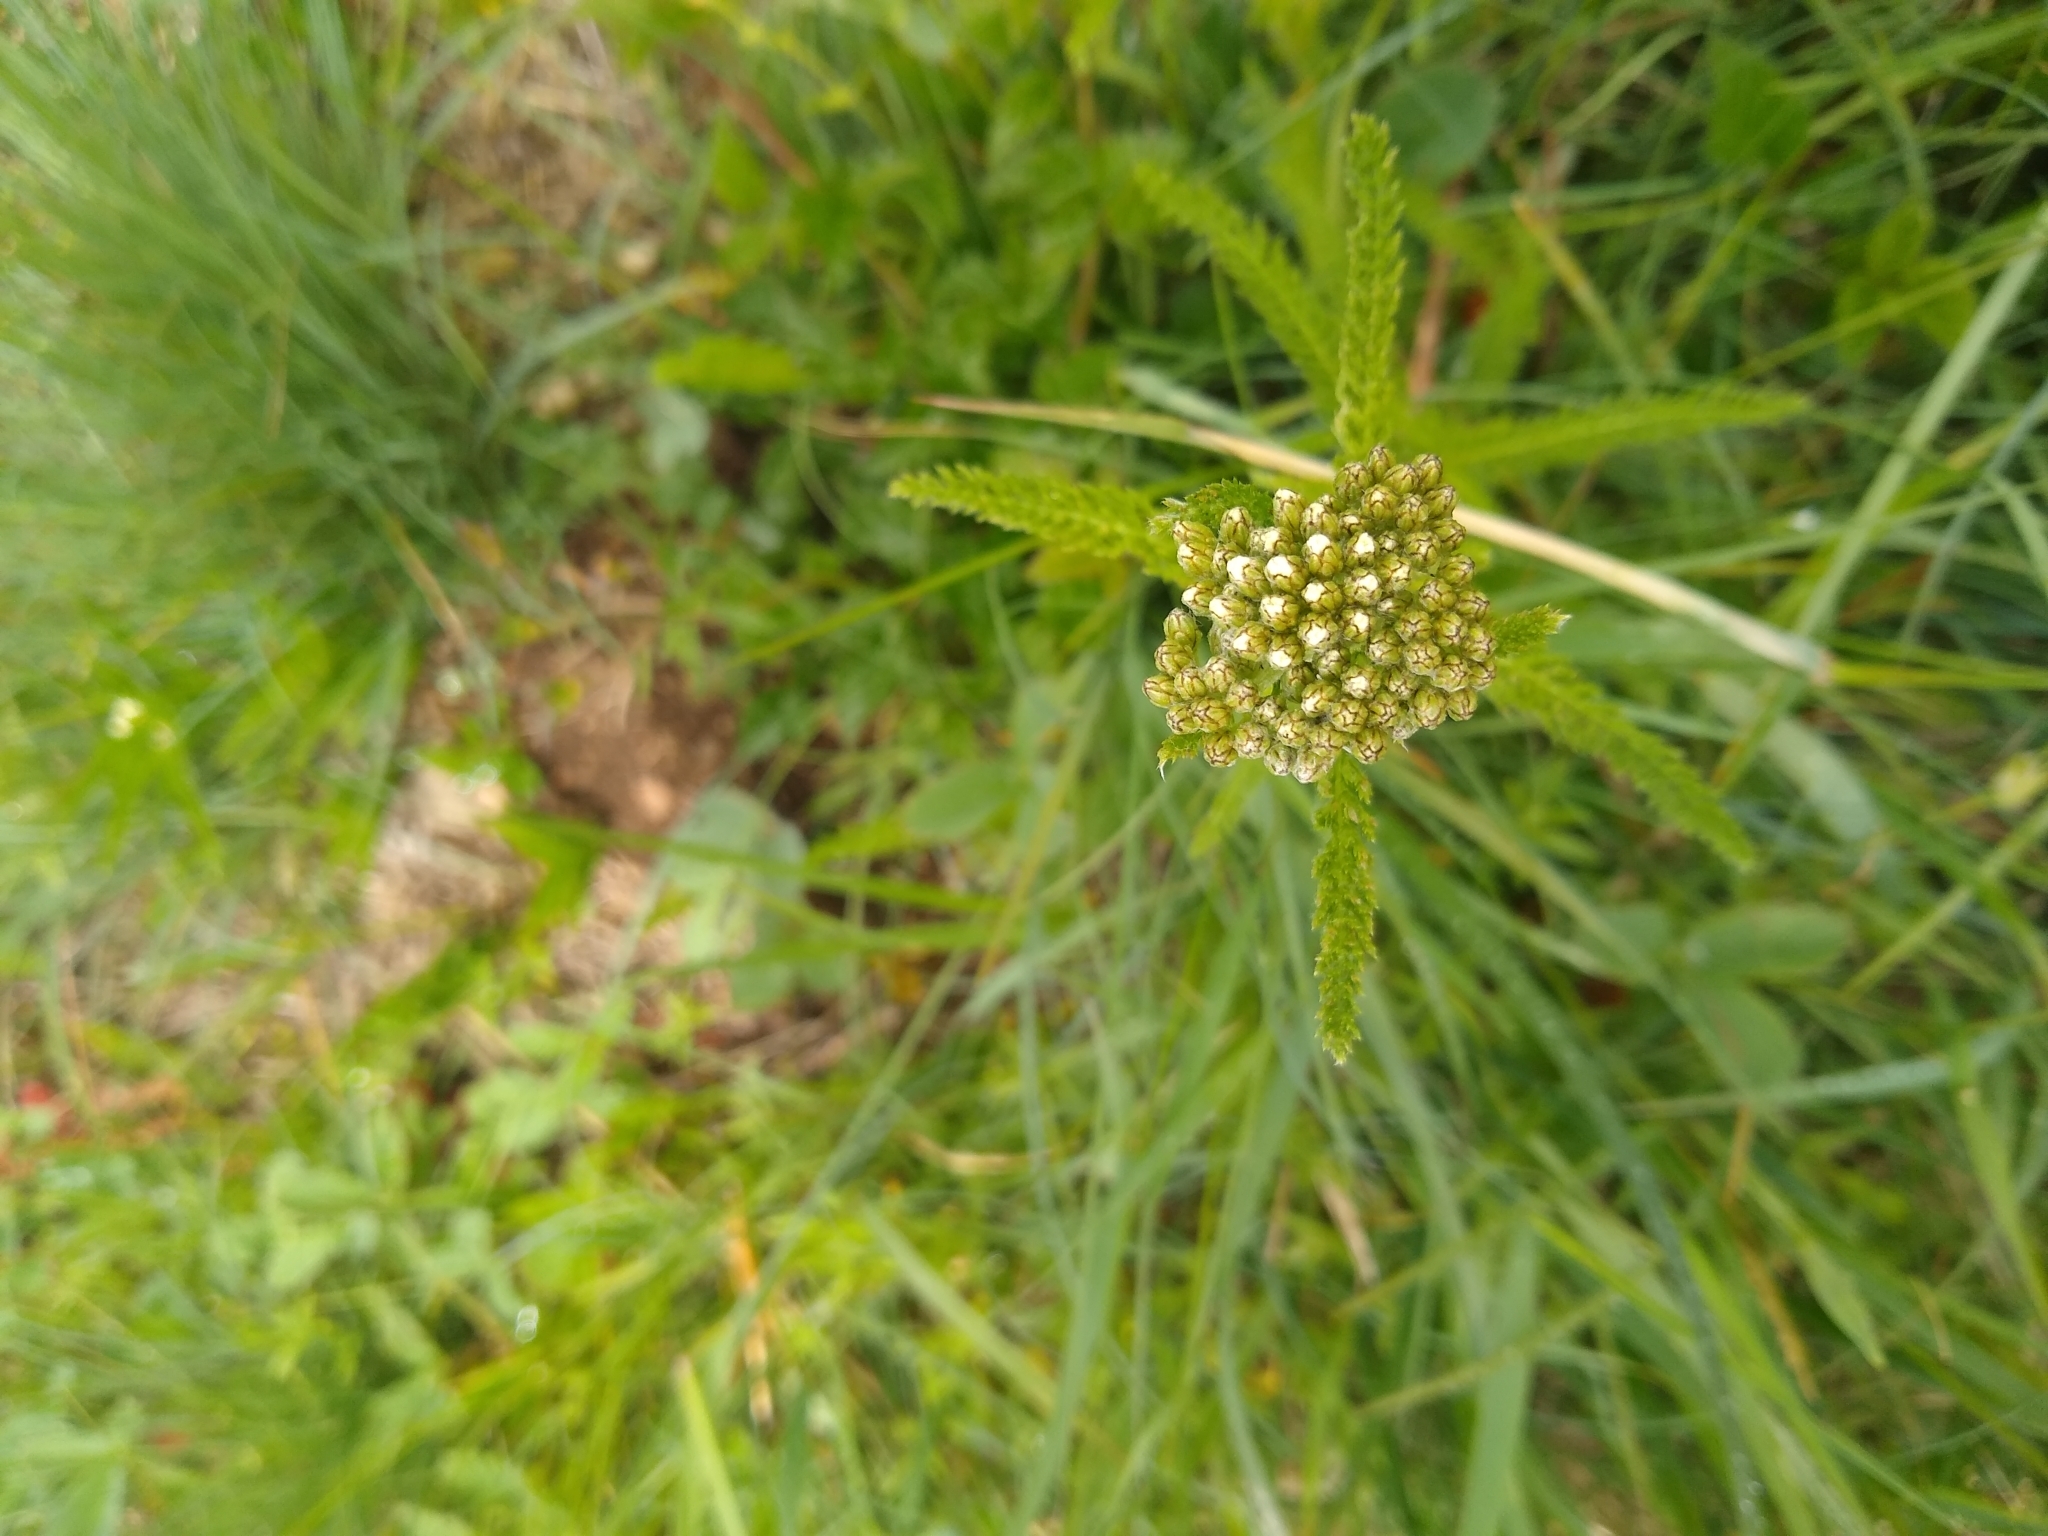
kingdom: Plantae
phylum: Tracheophyta
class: Magnoliopsida
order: Asterales
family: Asteraceae
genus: Achillea
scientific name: Achillea millefolium
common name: Yarrow
